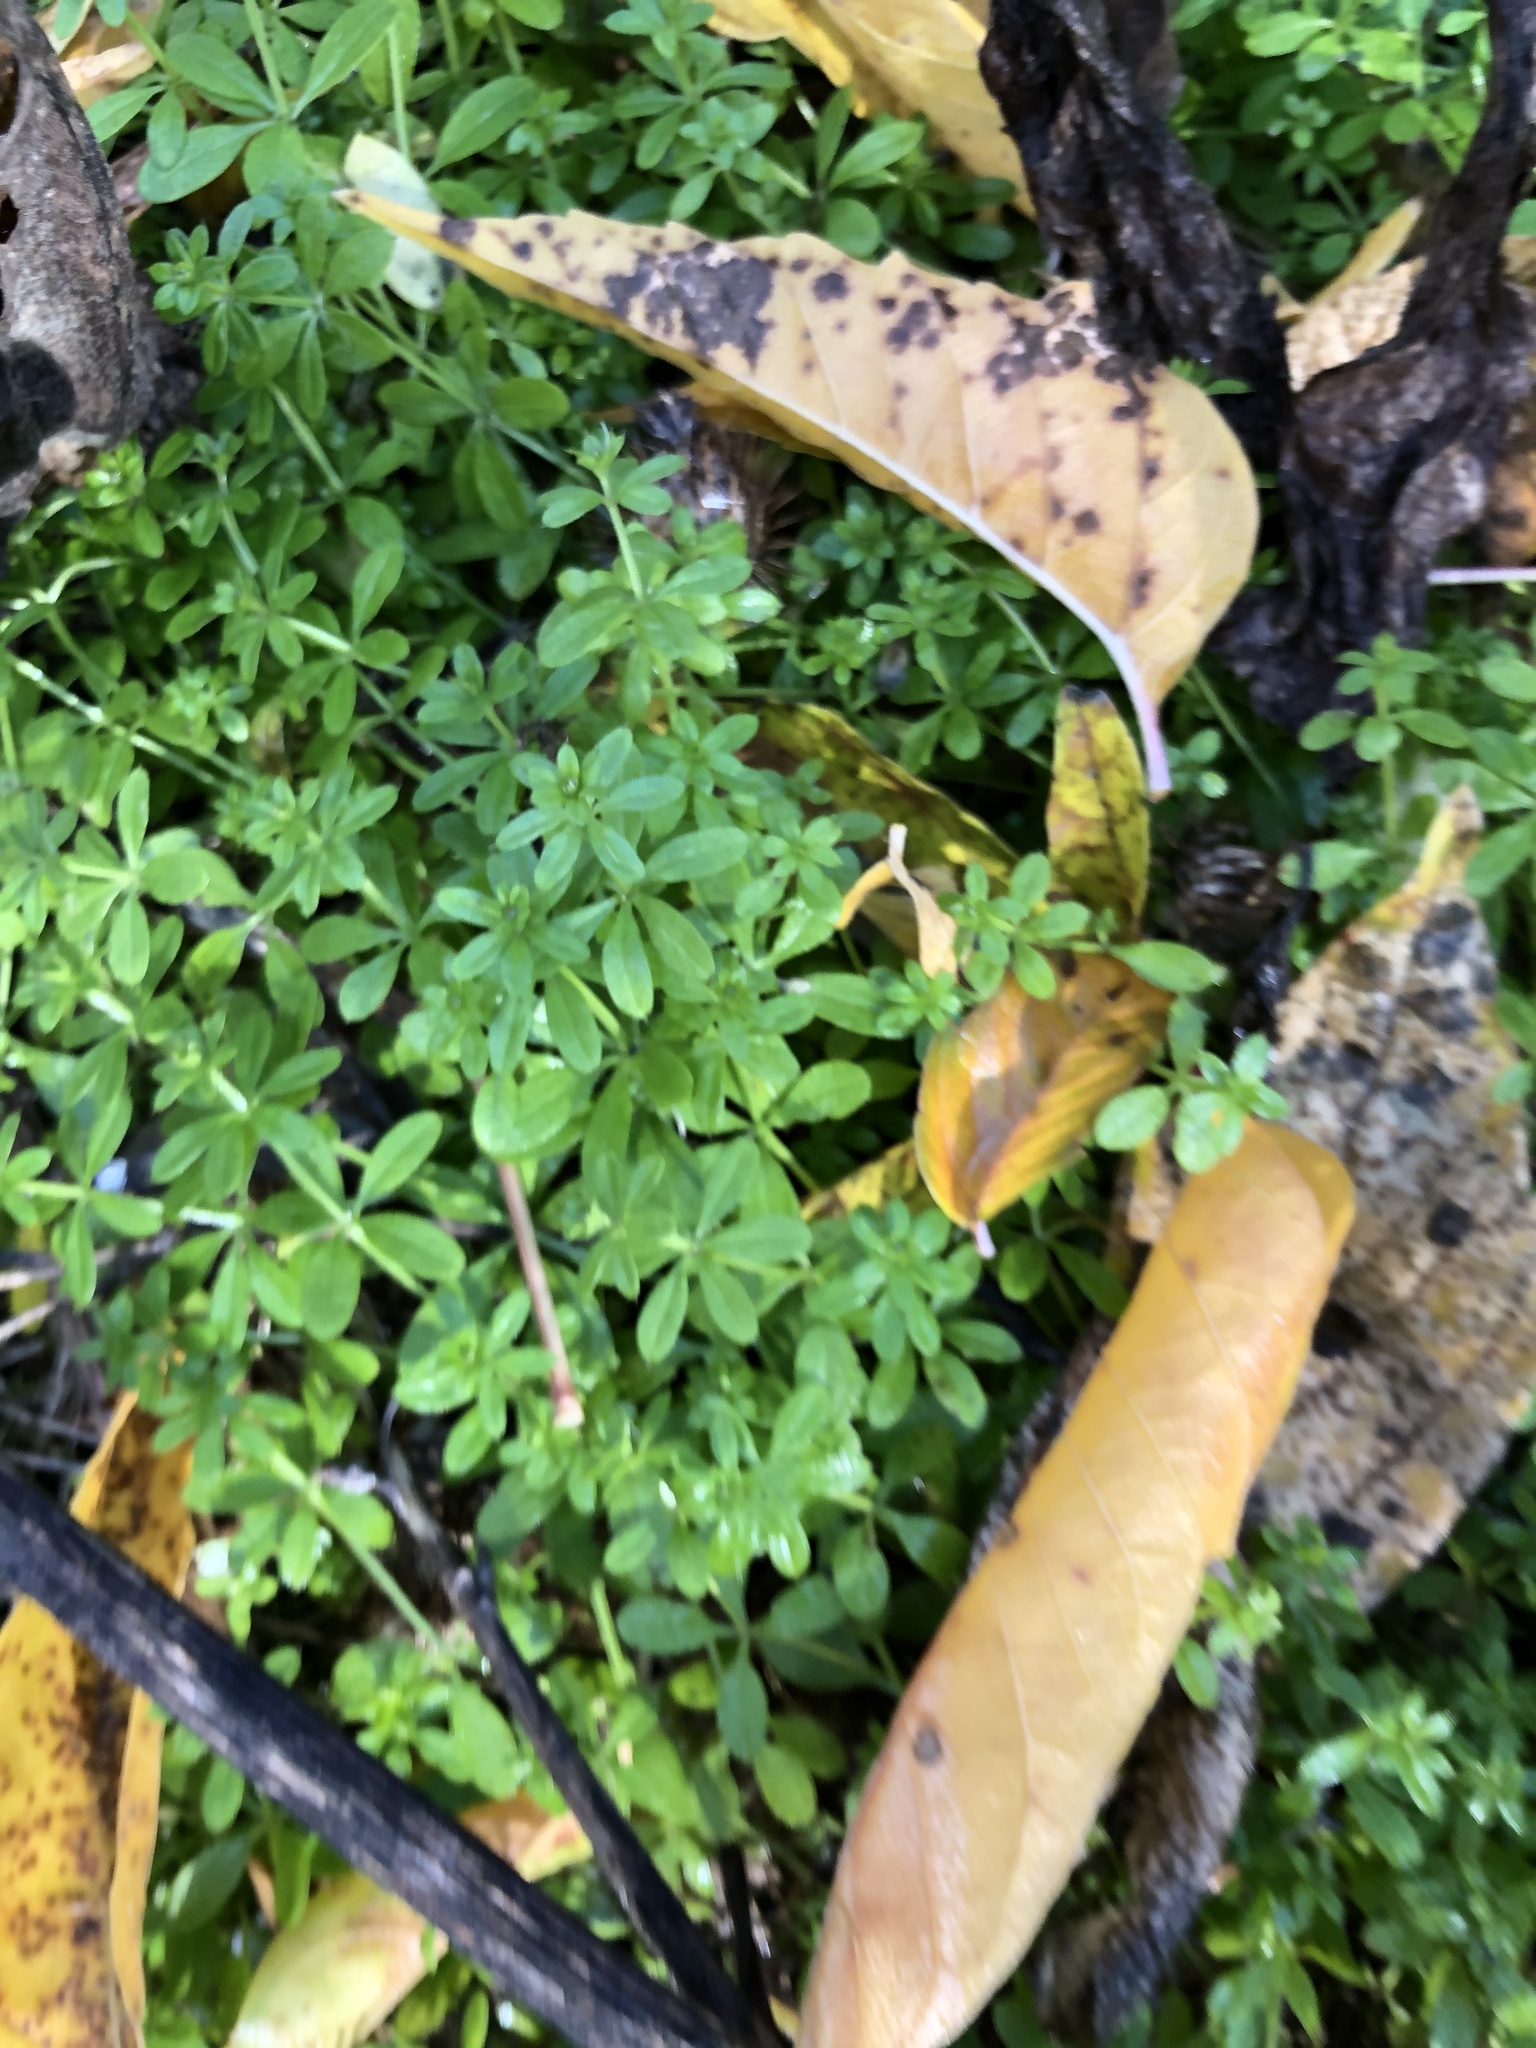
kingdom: Plantae
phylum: Tracheophyta
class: Magnoliopsida
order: Gentianales
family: Rubiaceae
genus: Galium
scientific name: Galium mollugo
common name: Hedge bedstraw
